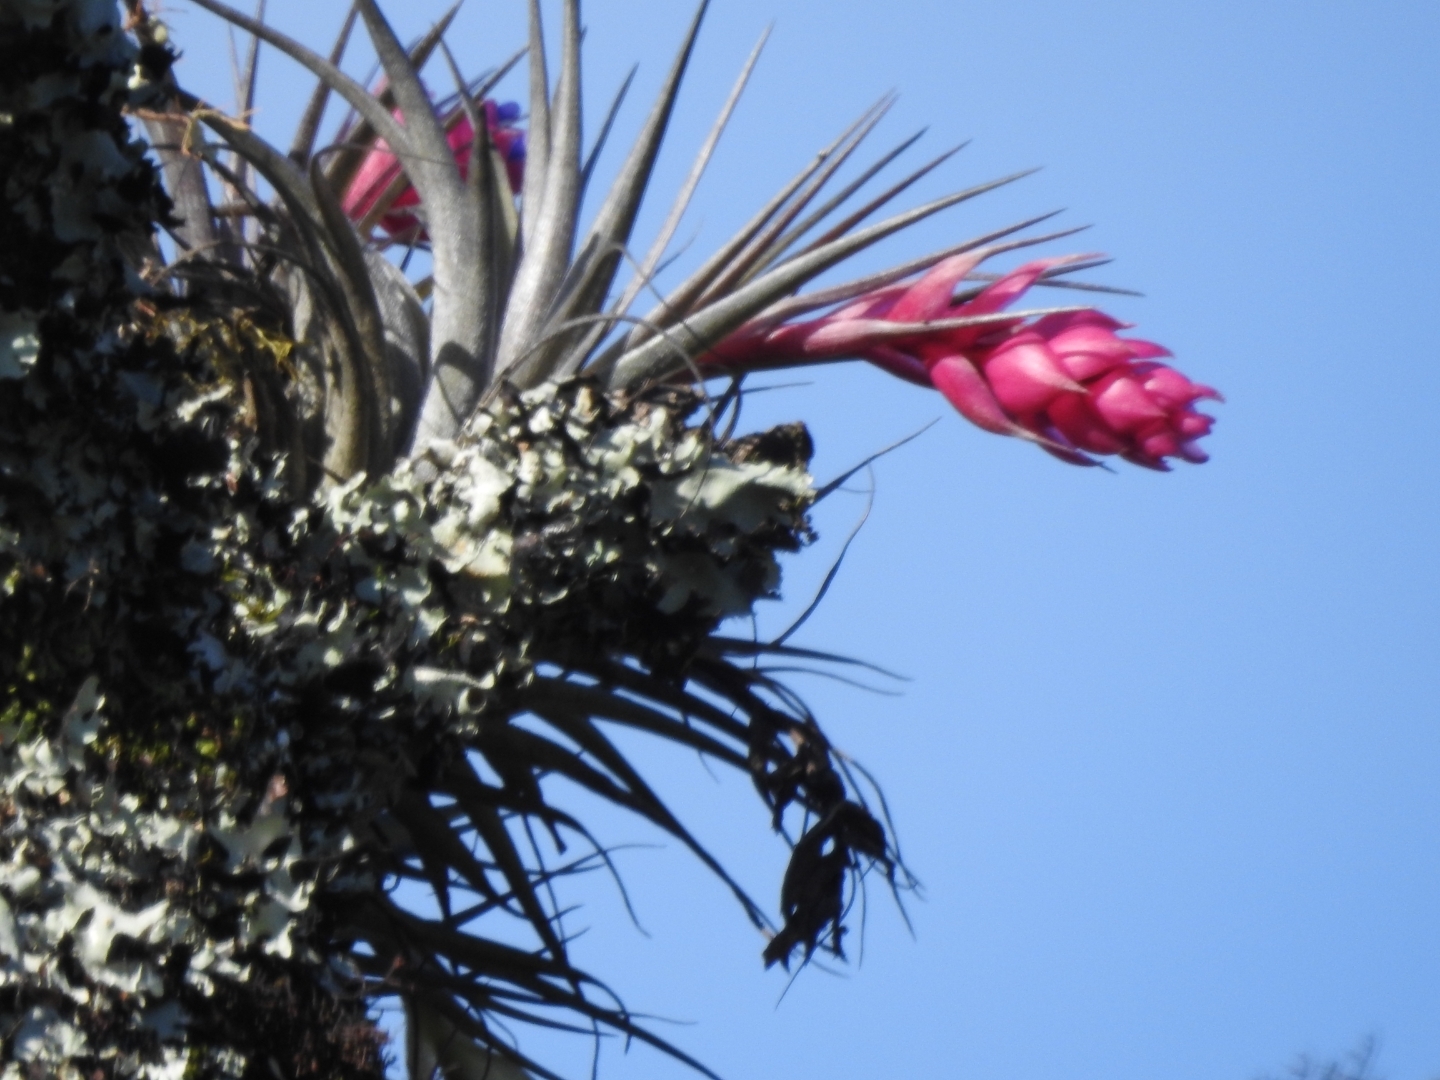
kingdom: Plantae
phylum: Tracheophyta
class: Liliopsida
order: Poales
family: Bromeliaceae
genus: Tillandsia
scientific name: Tillandsia stricta
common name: Airplant
